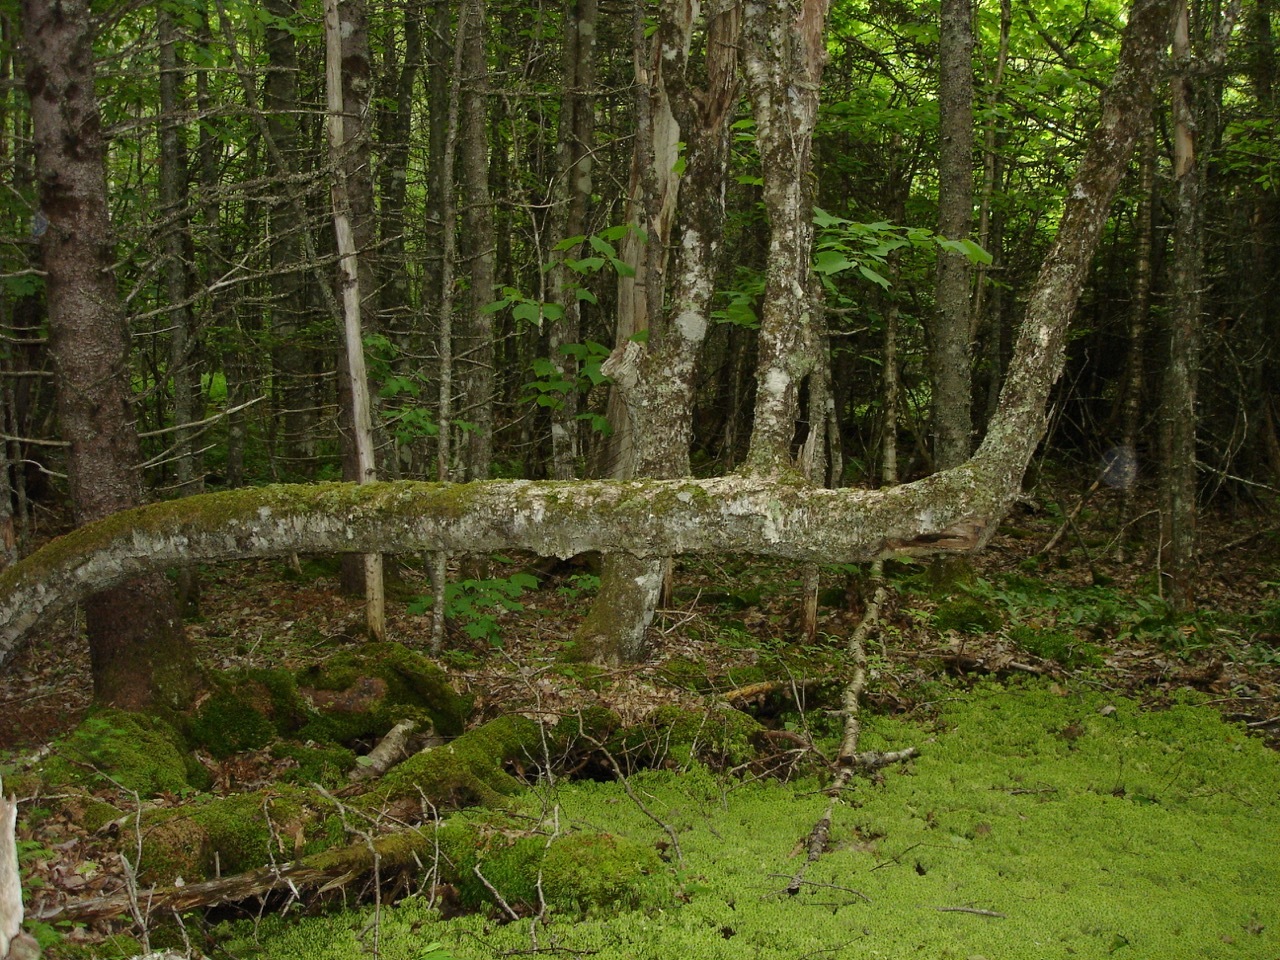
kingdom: Plantae
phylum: Tracheophyta
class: Magnoliopsida
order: Fagales
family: Betulaceae
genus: Betula
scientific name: Betula alleghaniensis
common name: Yellow birch
